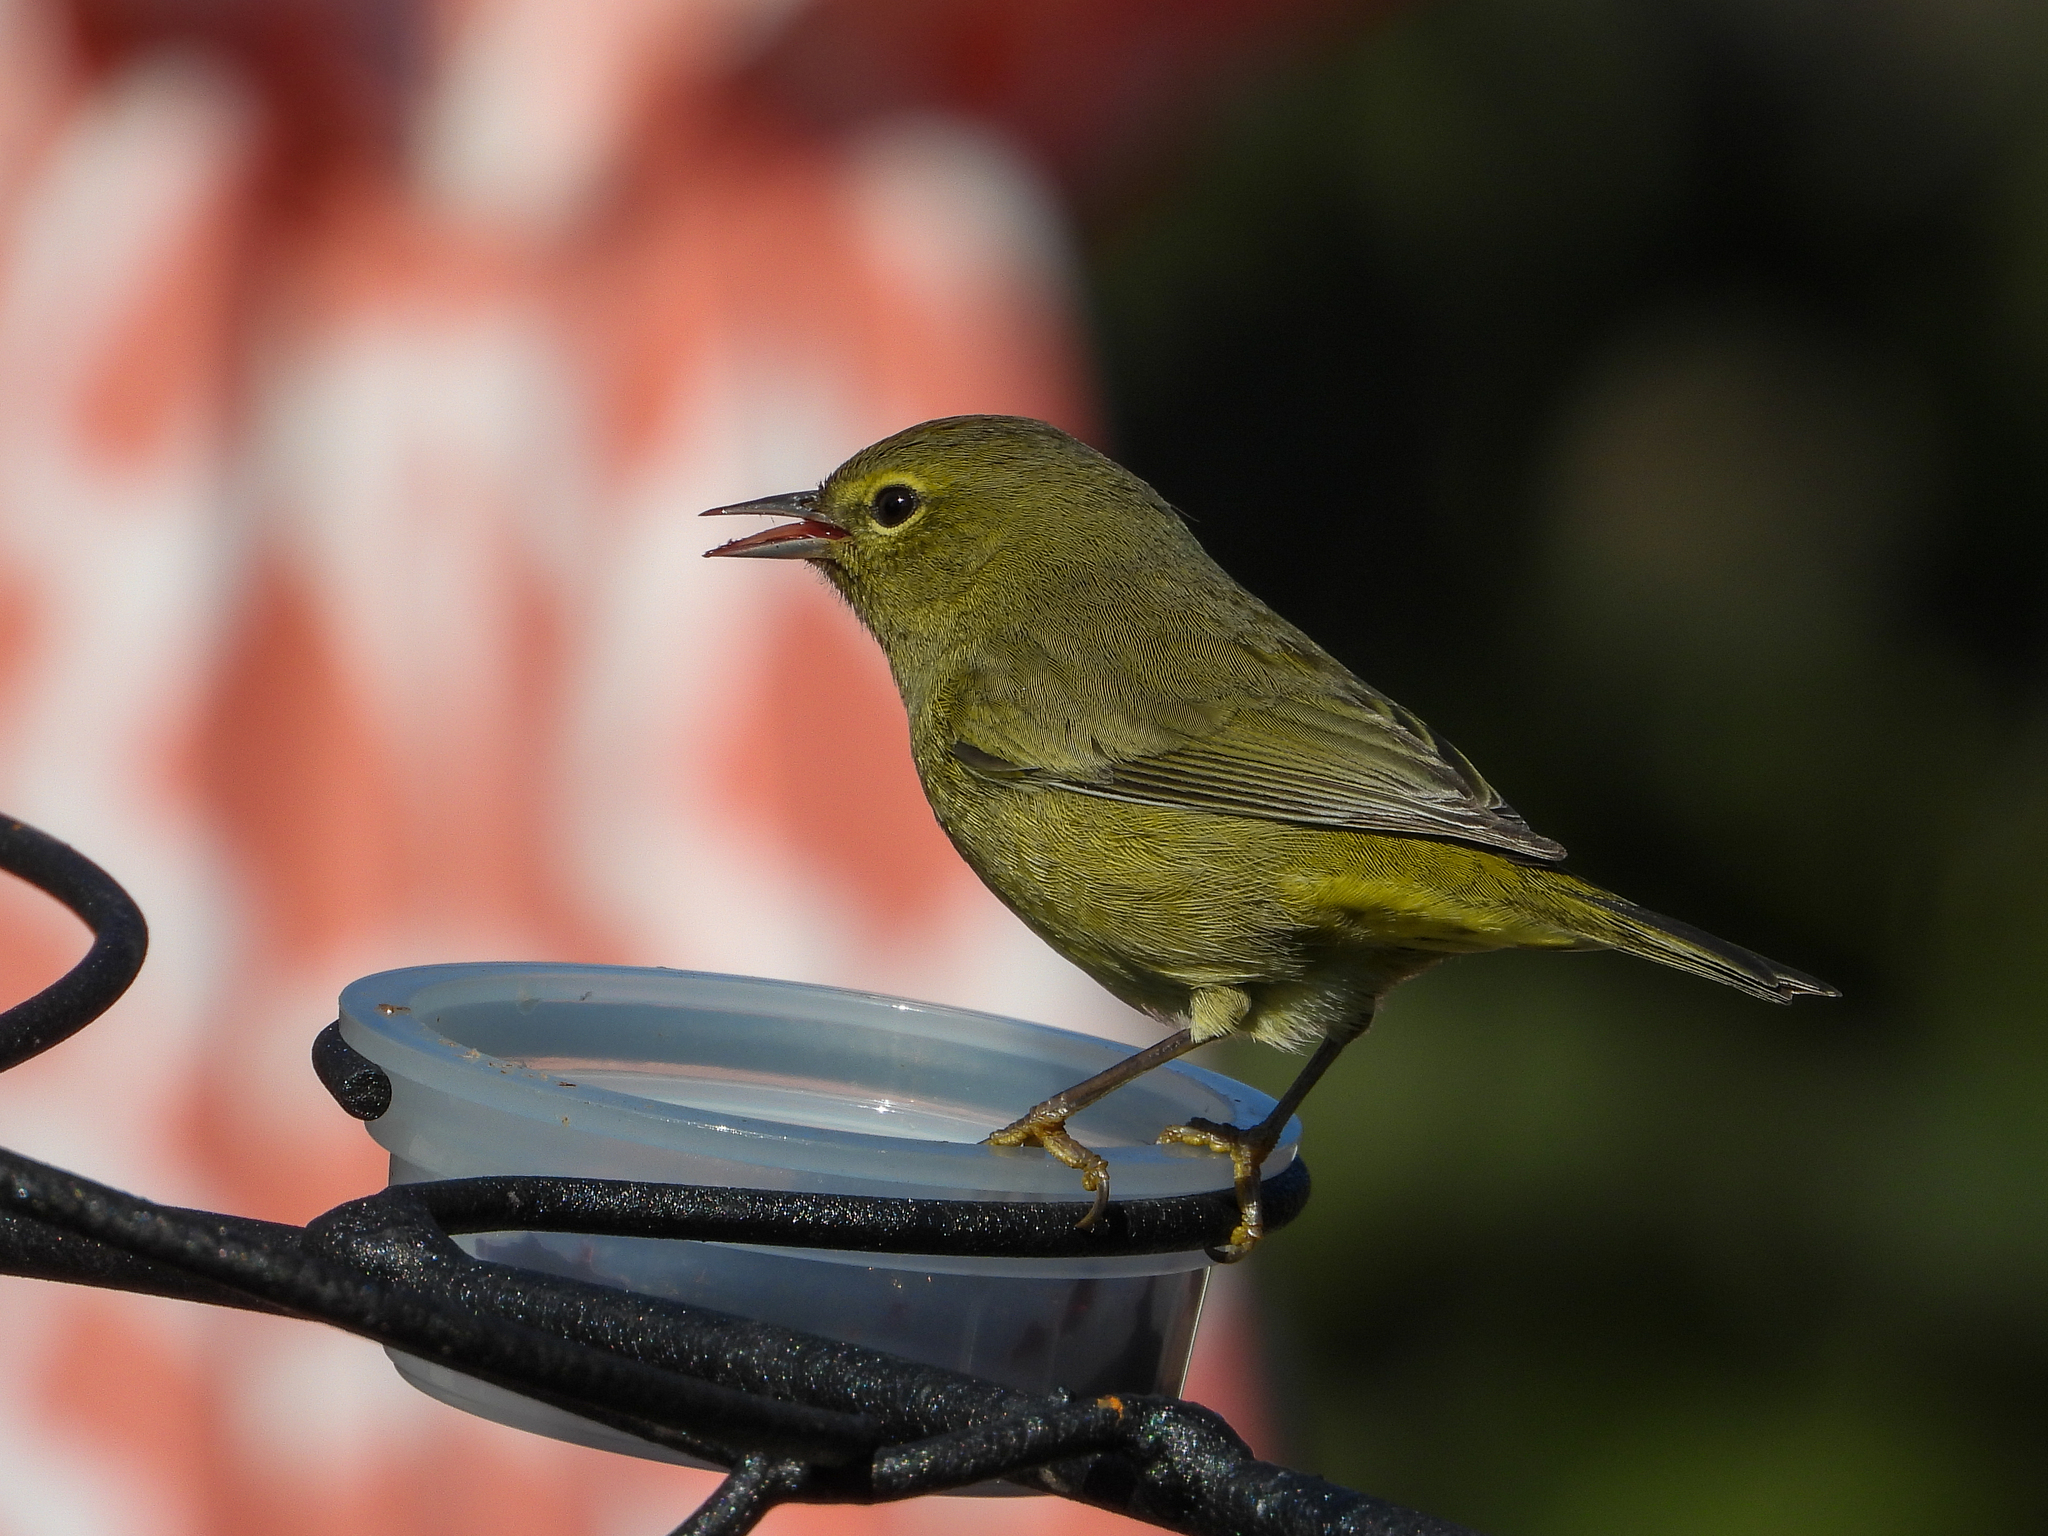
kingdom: Animalia
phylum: Chordata
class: Aves
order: Passeriformes
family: Parulidae
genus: Leiothlypis
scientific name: Leiothlypis celata
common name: Orange-crowned warbler
